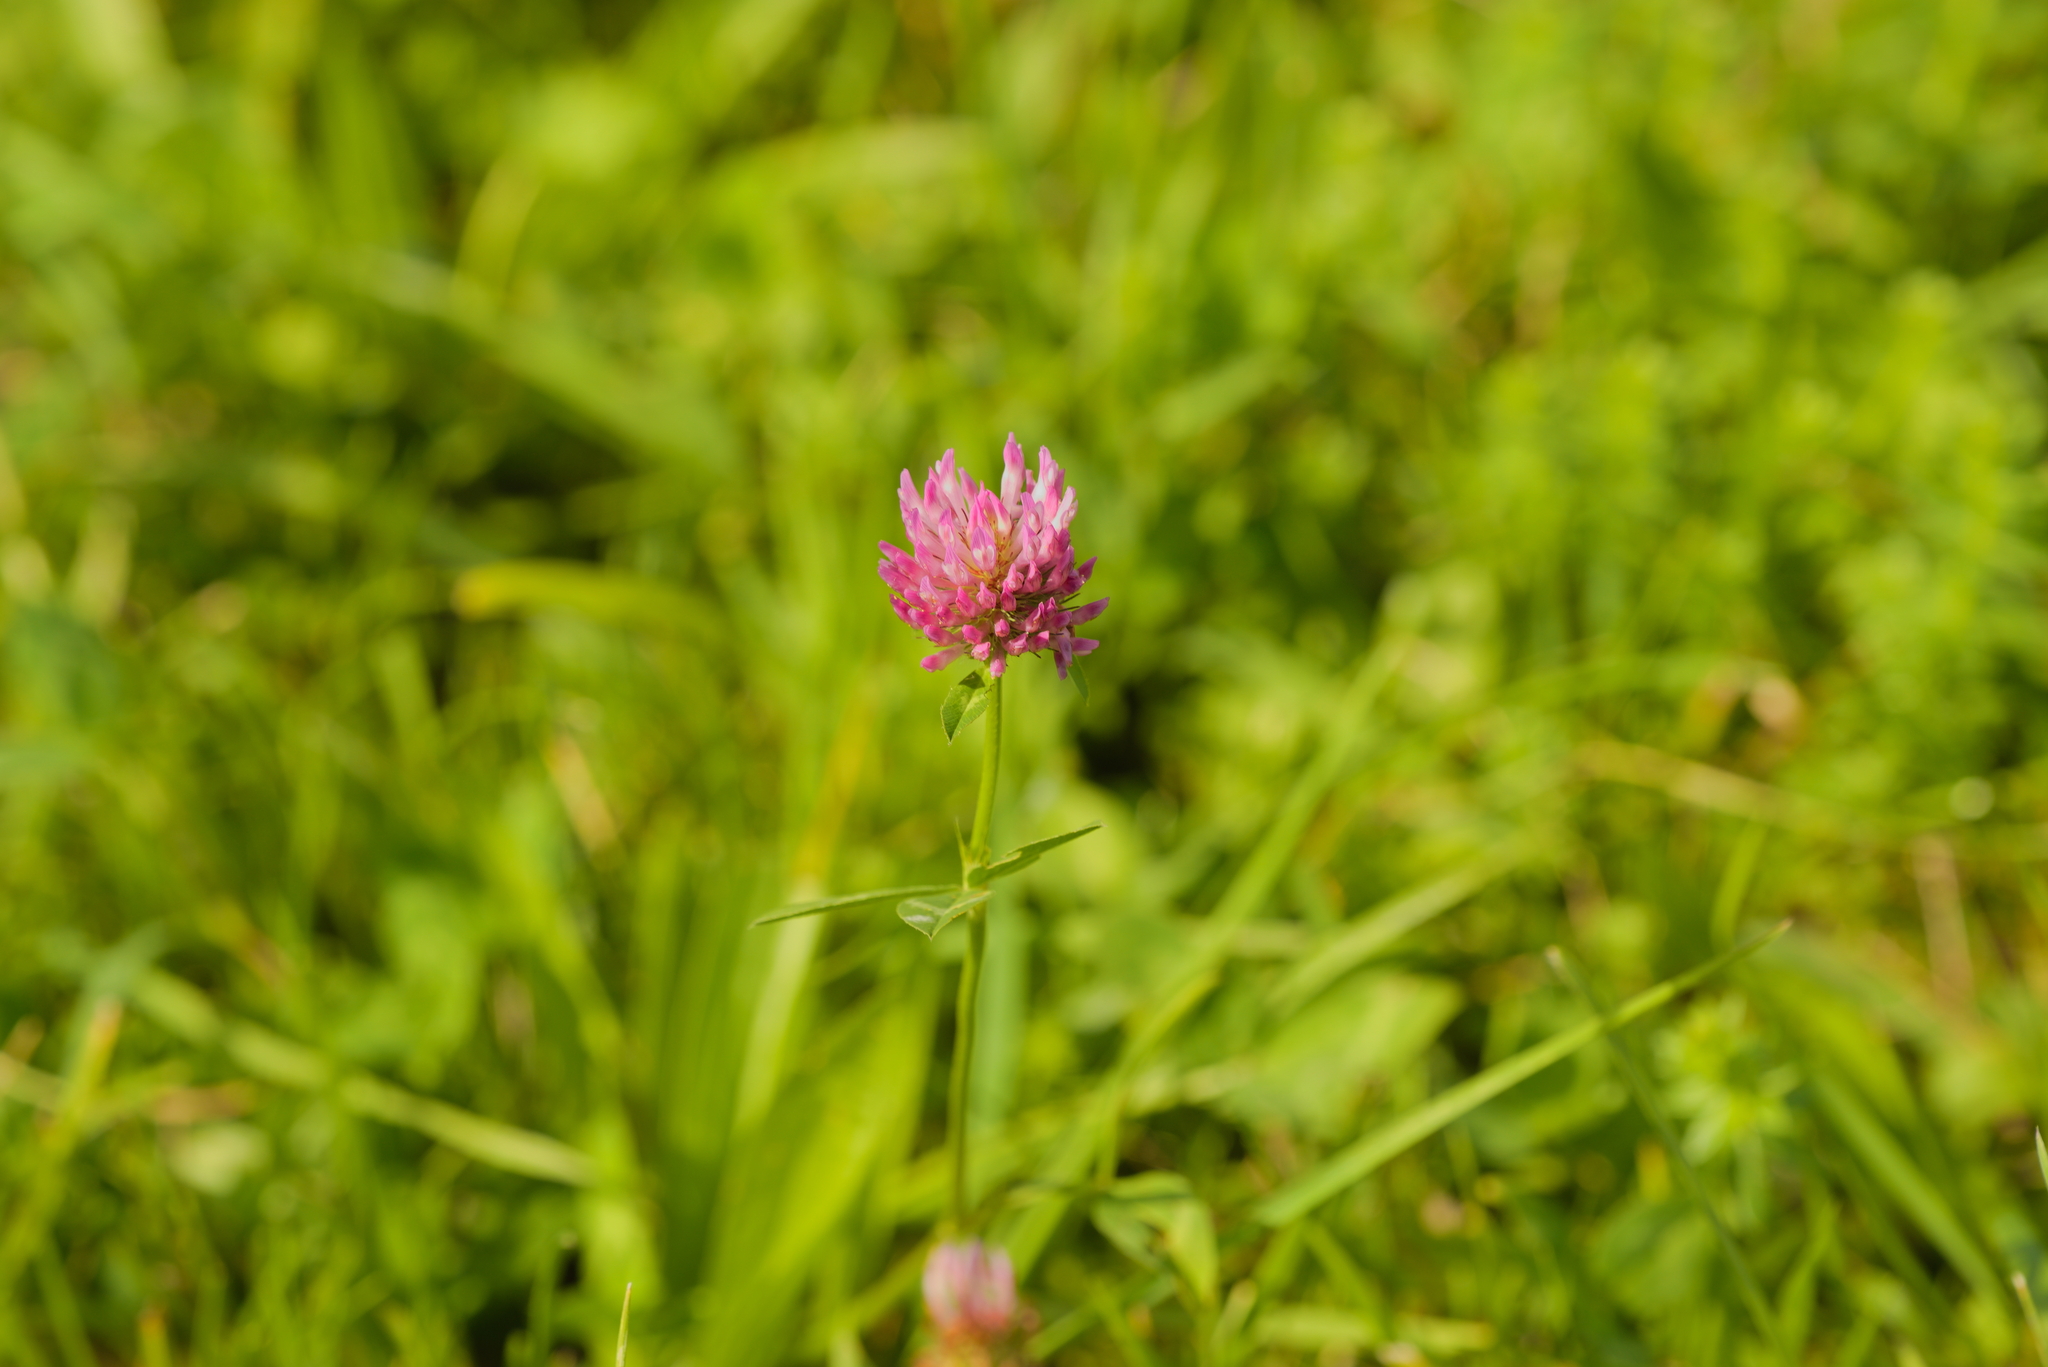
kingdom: Plantae
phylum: Tracheophyta
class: Magnoliopsida
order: Fabales
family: Fabaceae
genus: Trifolium
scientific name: Trifolium pratense
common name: Red clover
